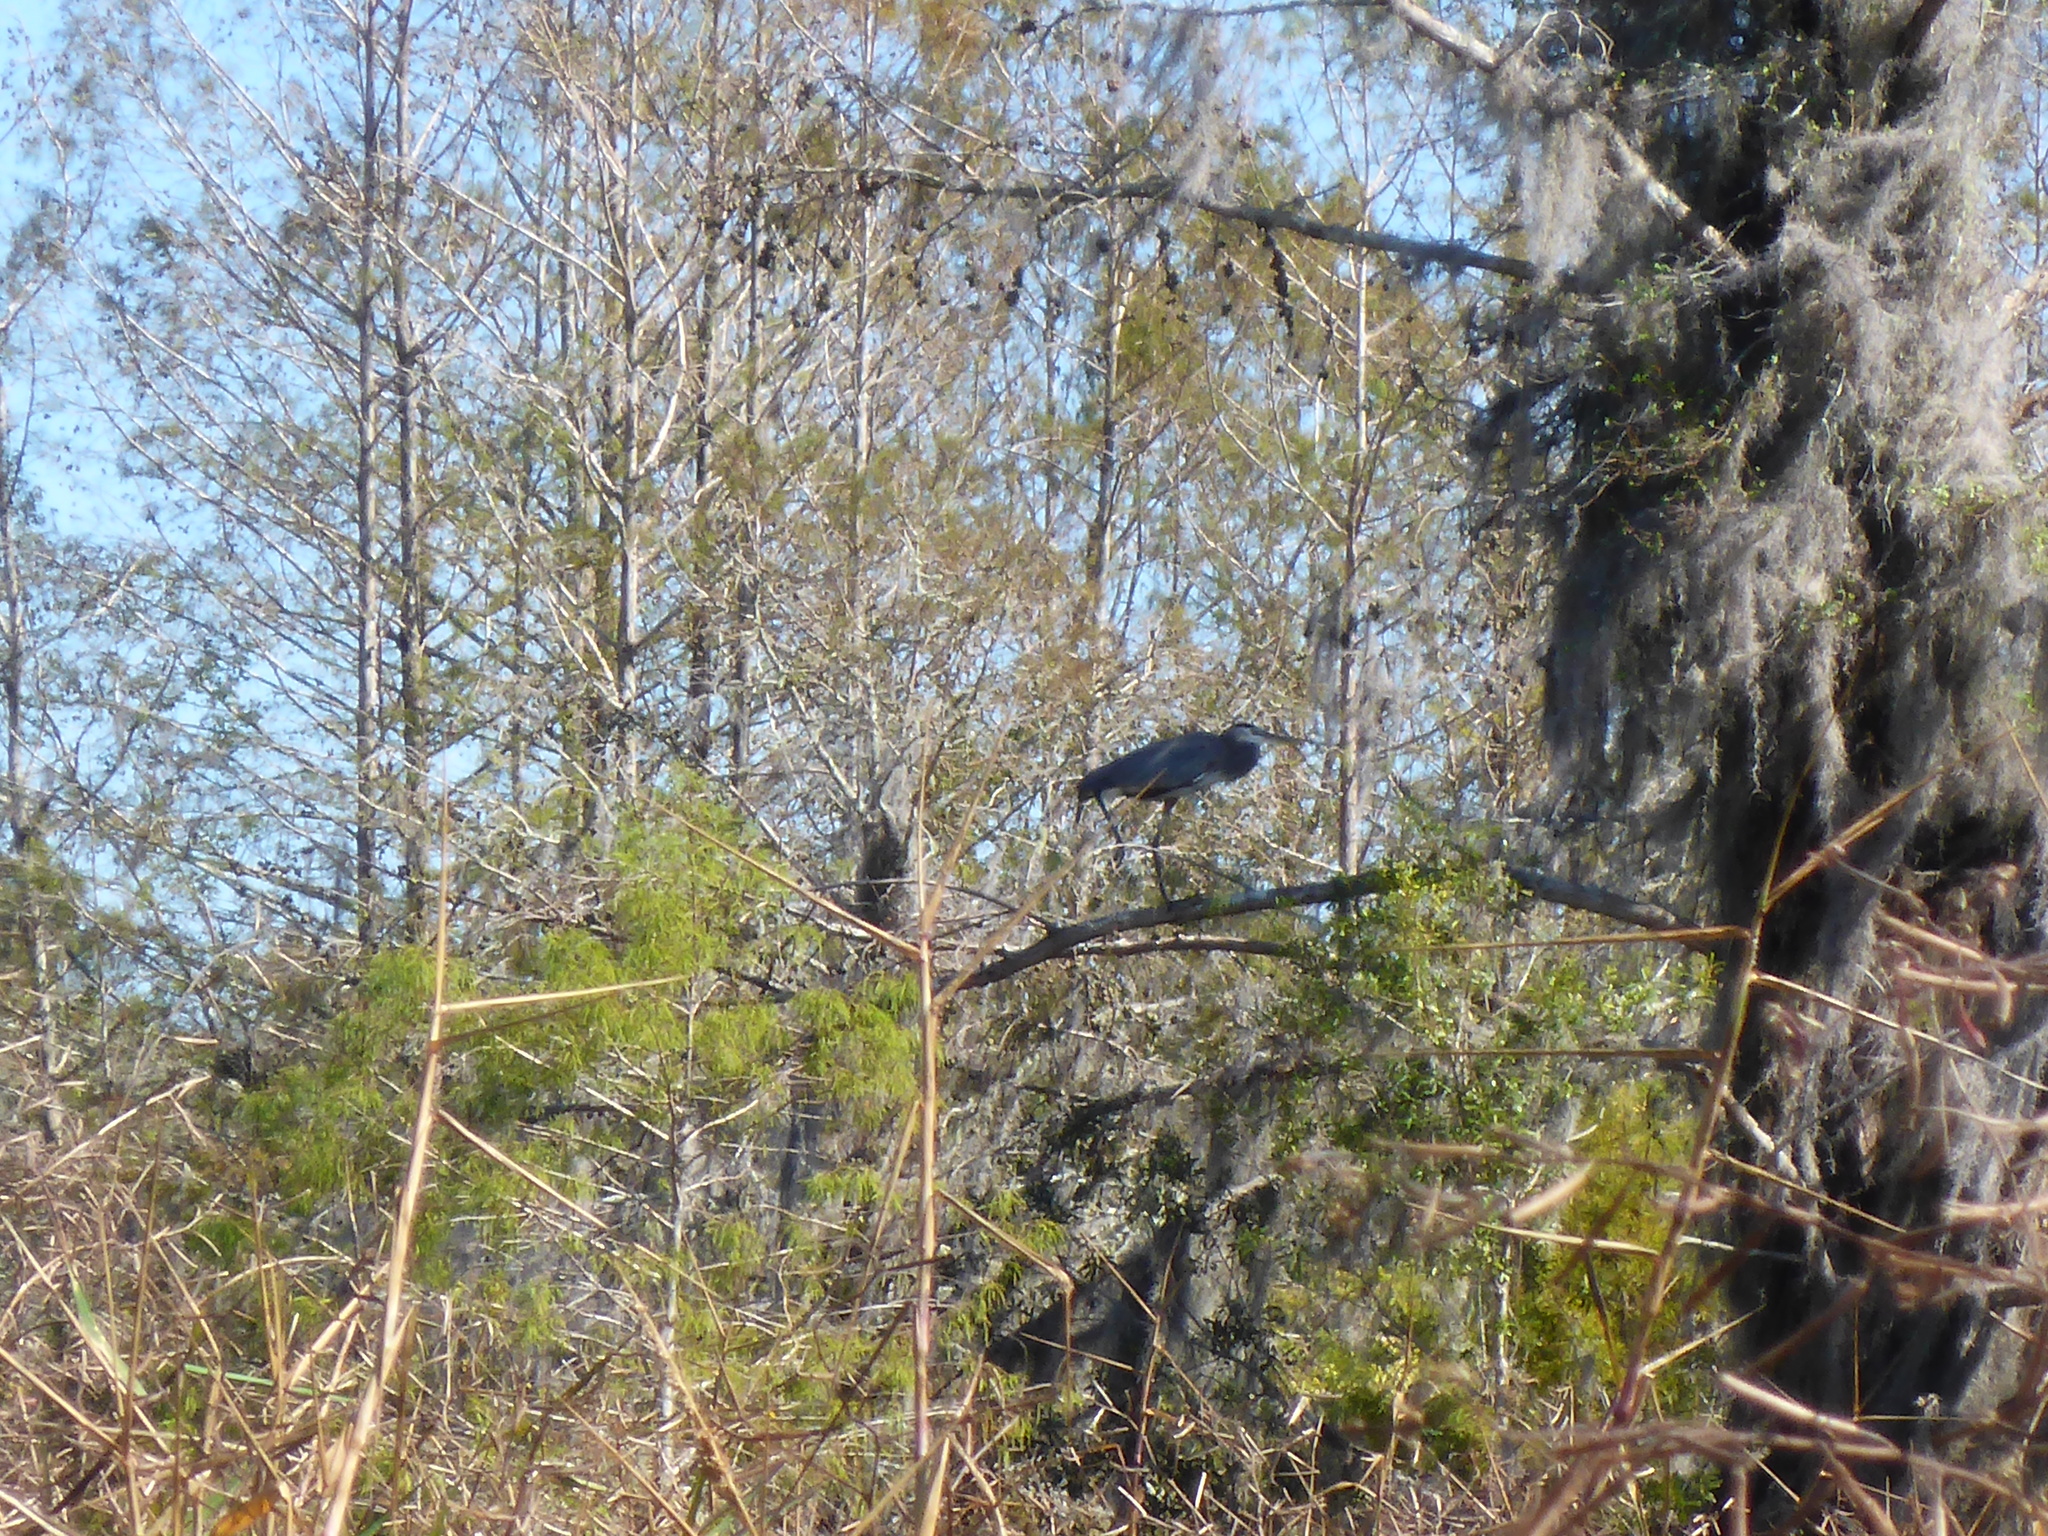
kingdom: Animalia
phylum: Chordata
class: Aves
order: Pelecaniformes
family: Ardeidae
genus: Ardea
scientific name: Ardea herodias
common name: Great blue heron
